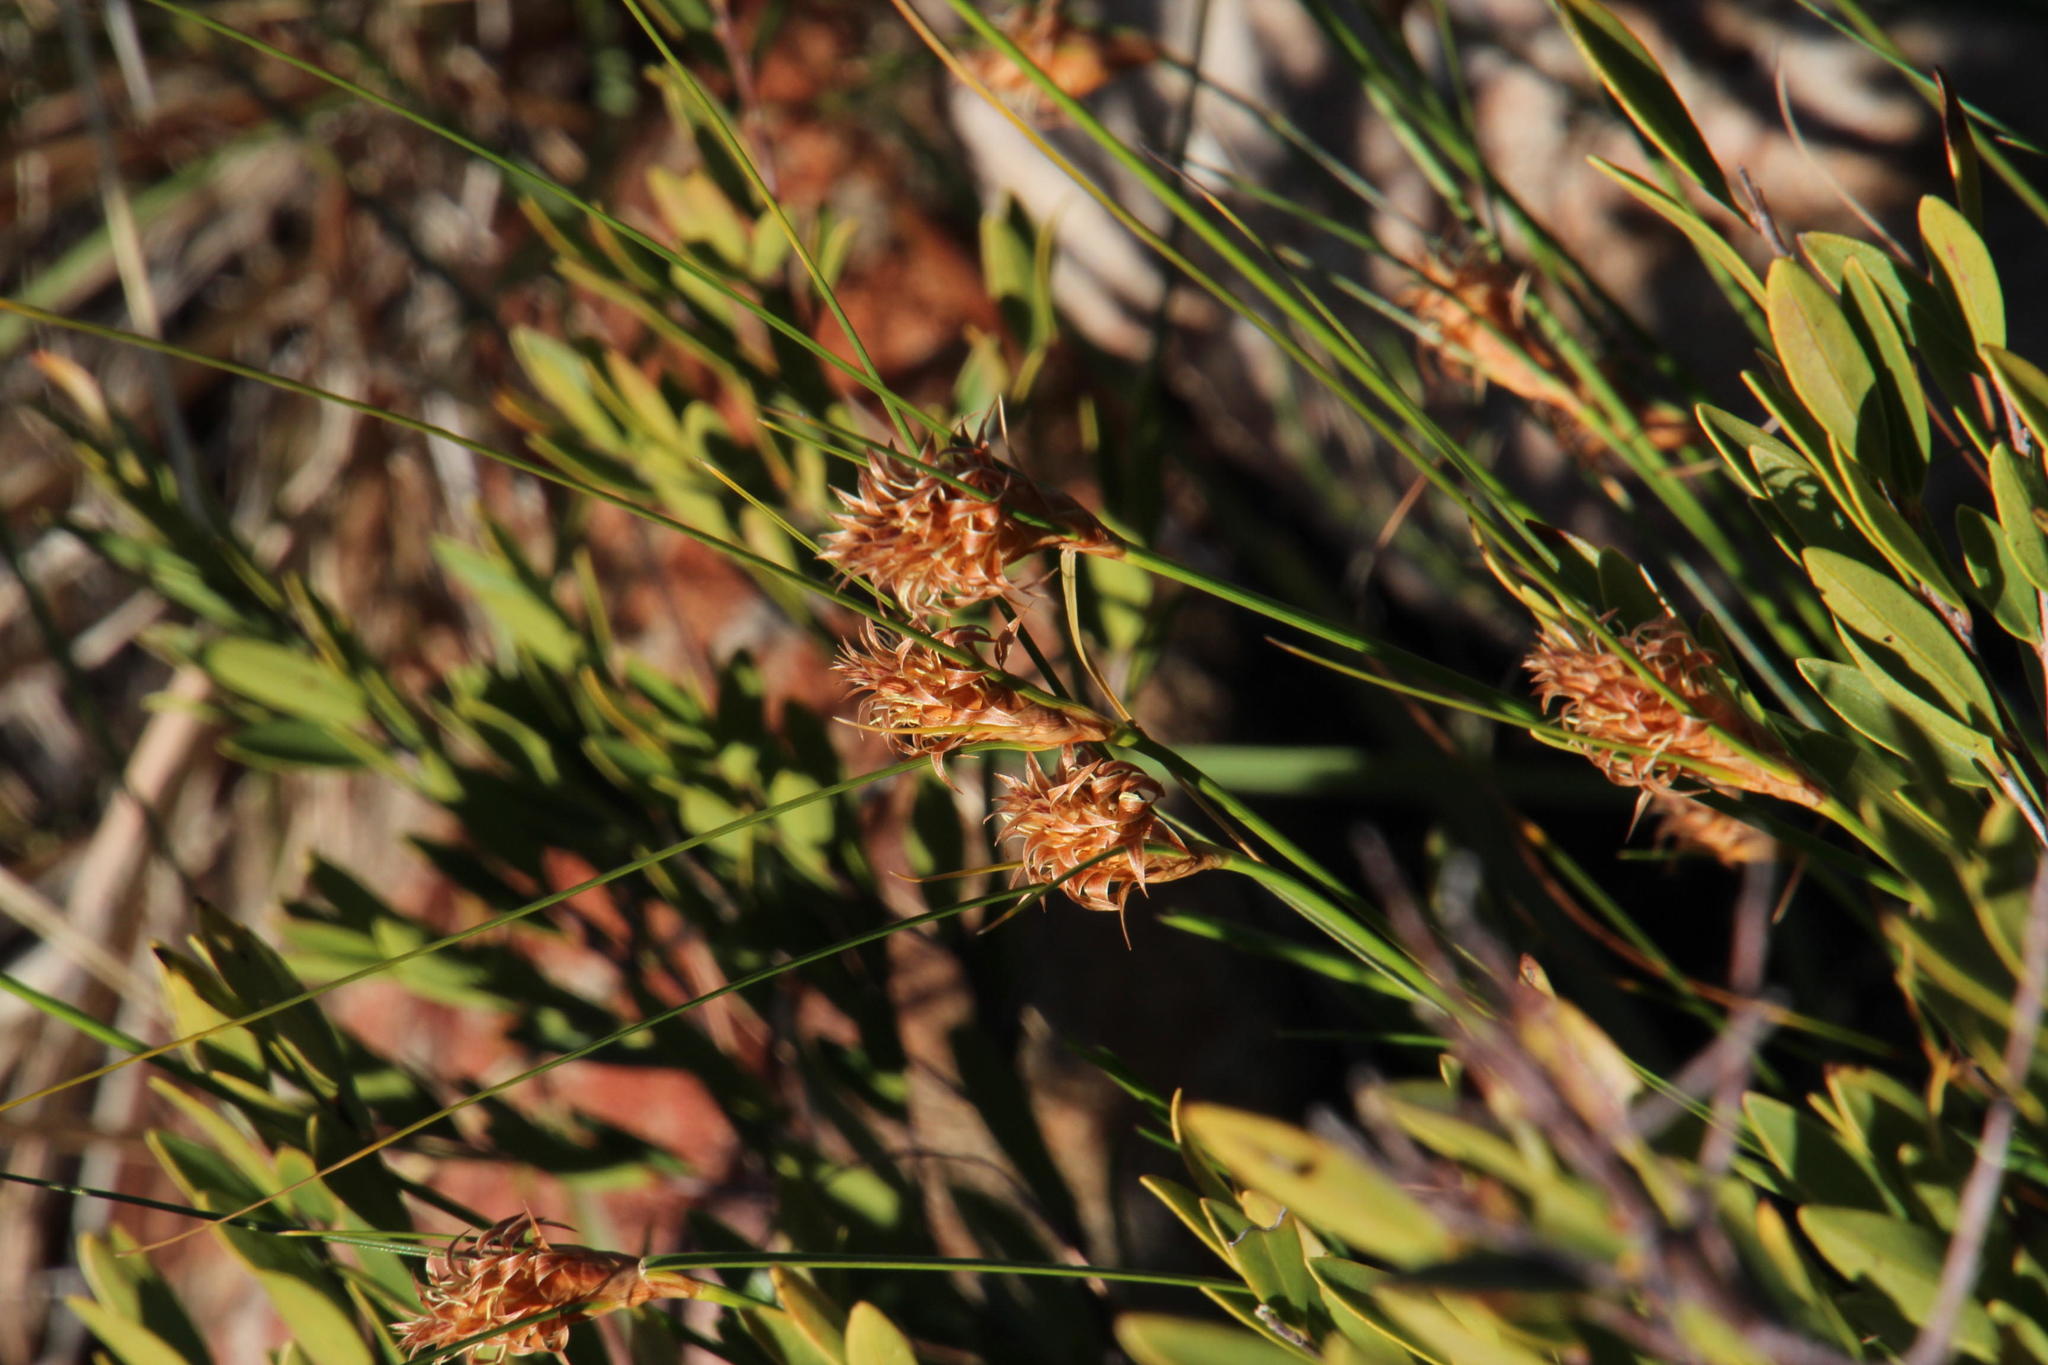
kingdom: Plantae
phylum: Tracheophyta
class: Liliopsida
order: Poales
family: Cyperaceae
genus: Ficinia
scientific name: Ficinia nigrescens
